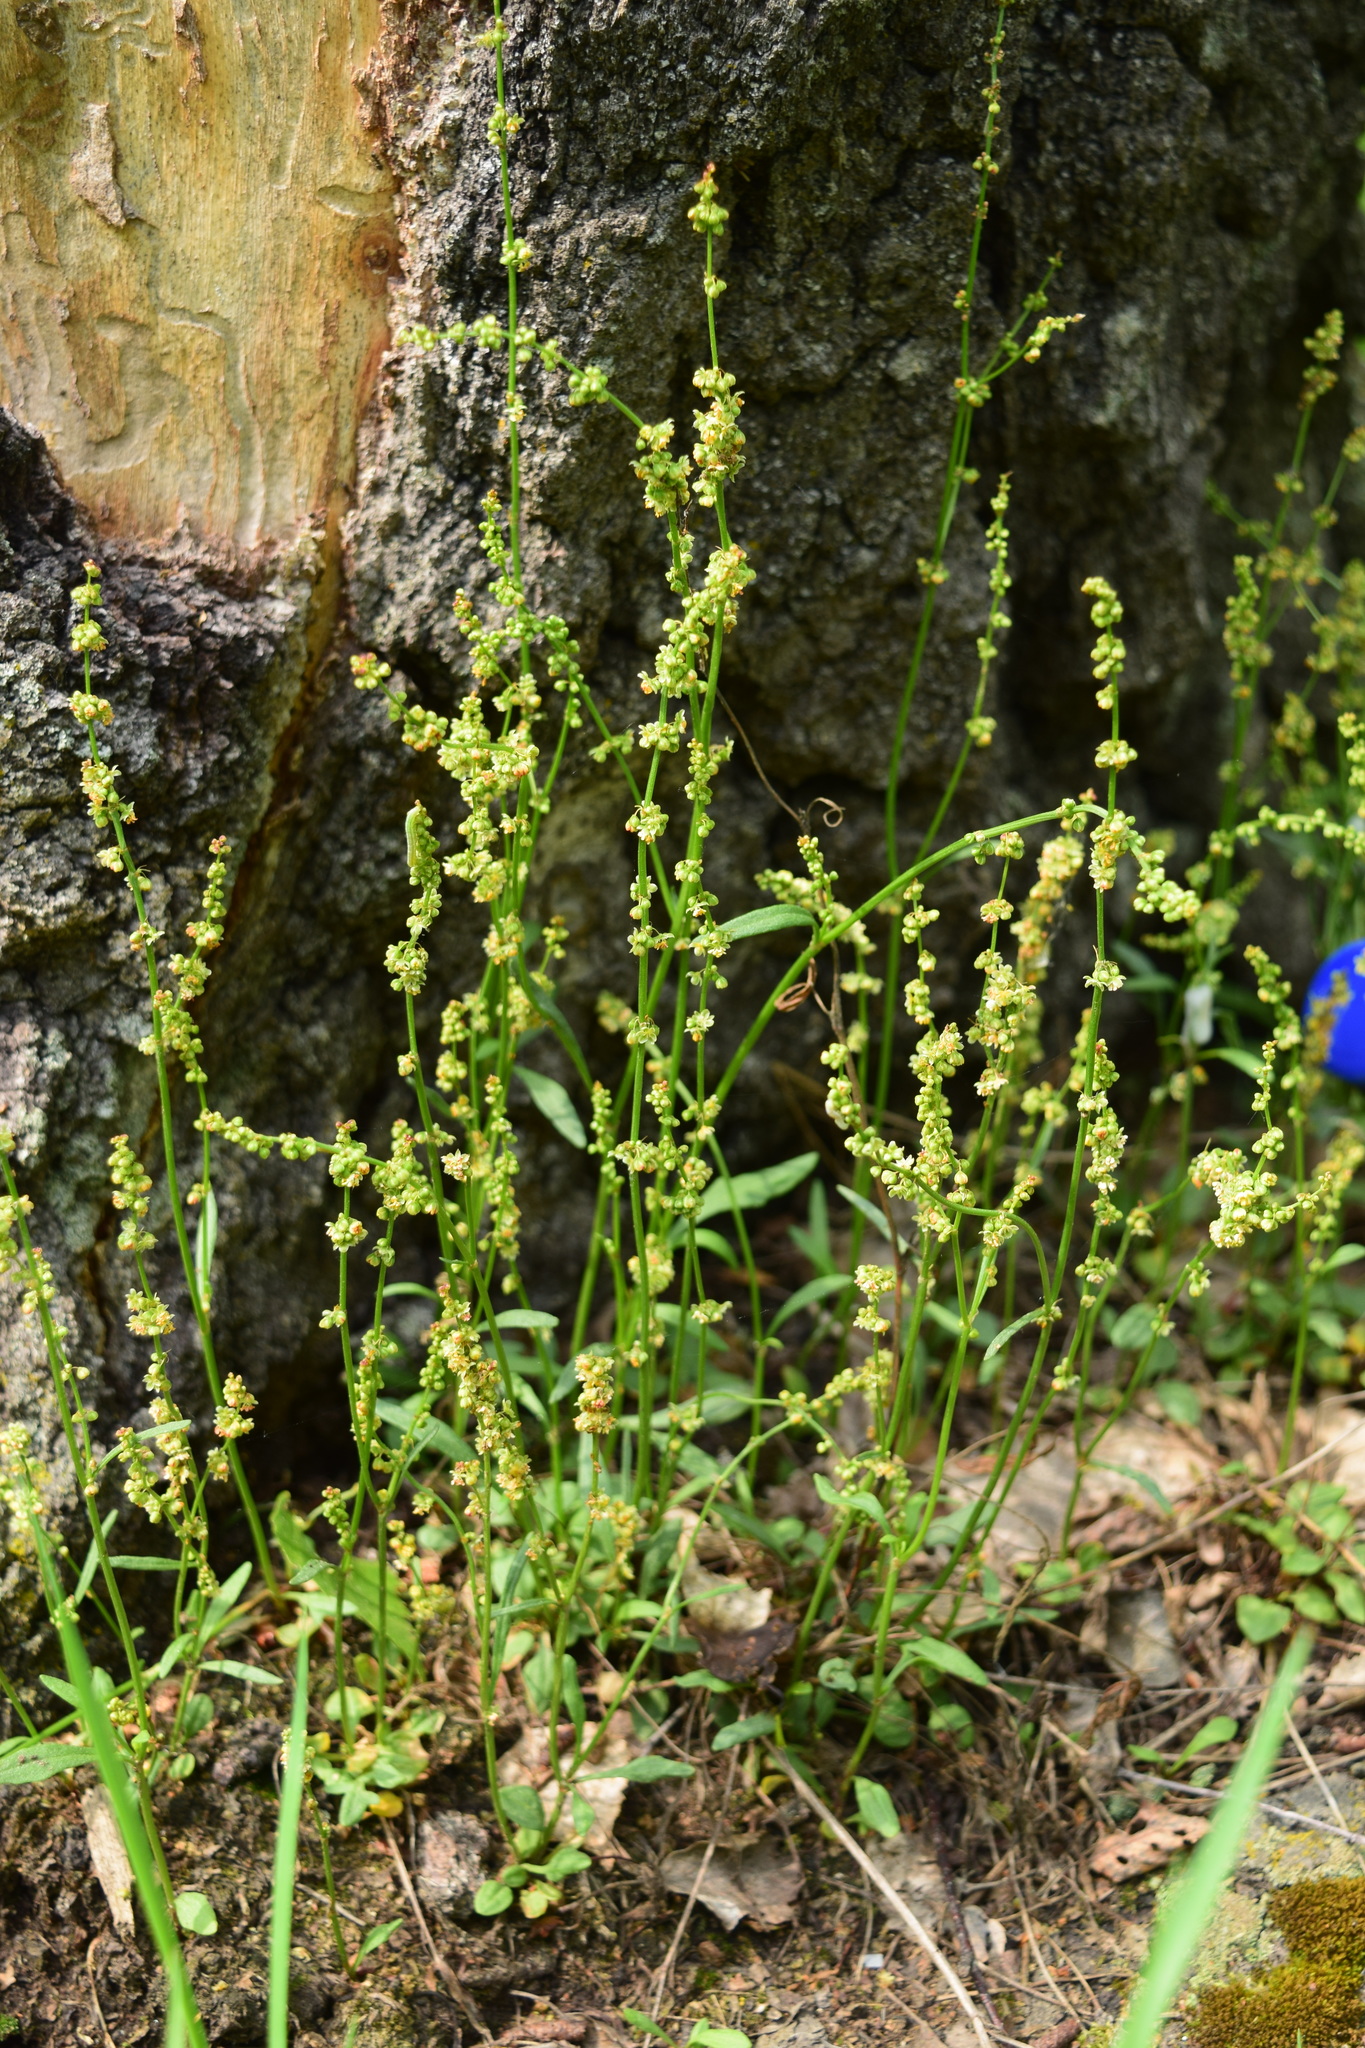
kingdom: Plantae
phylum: Tracheophyta
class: Magnoliopsida
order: Caryophyllales
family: Polygonaceae
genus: Rumex
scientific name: Rumex acetosella
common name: Common sheep sorrel
